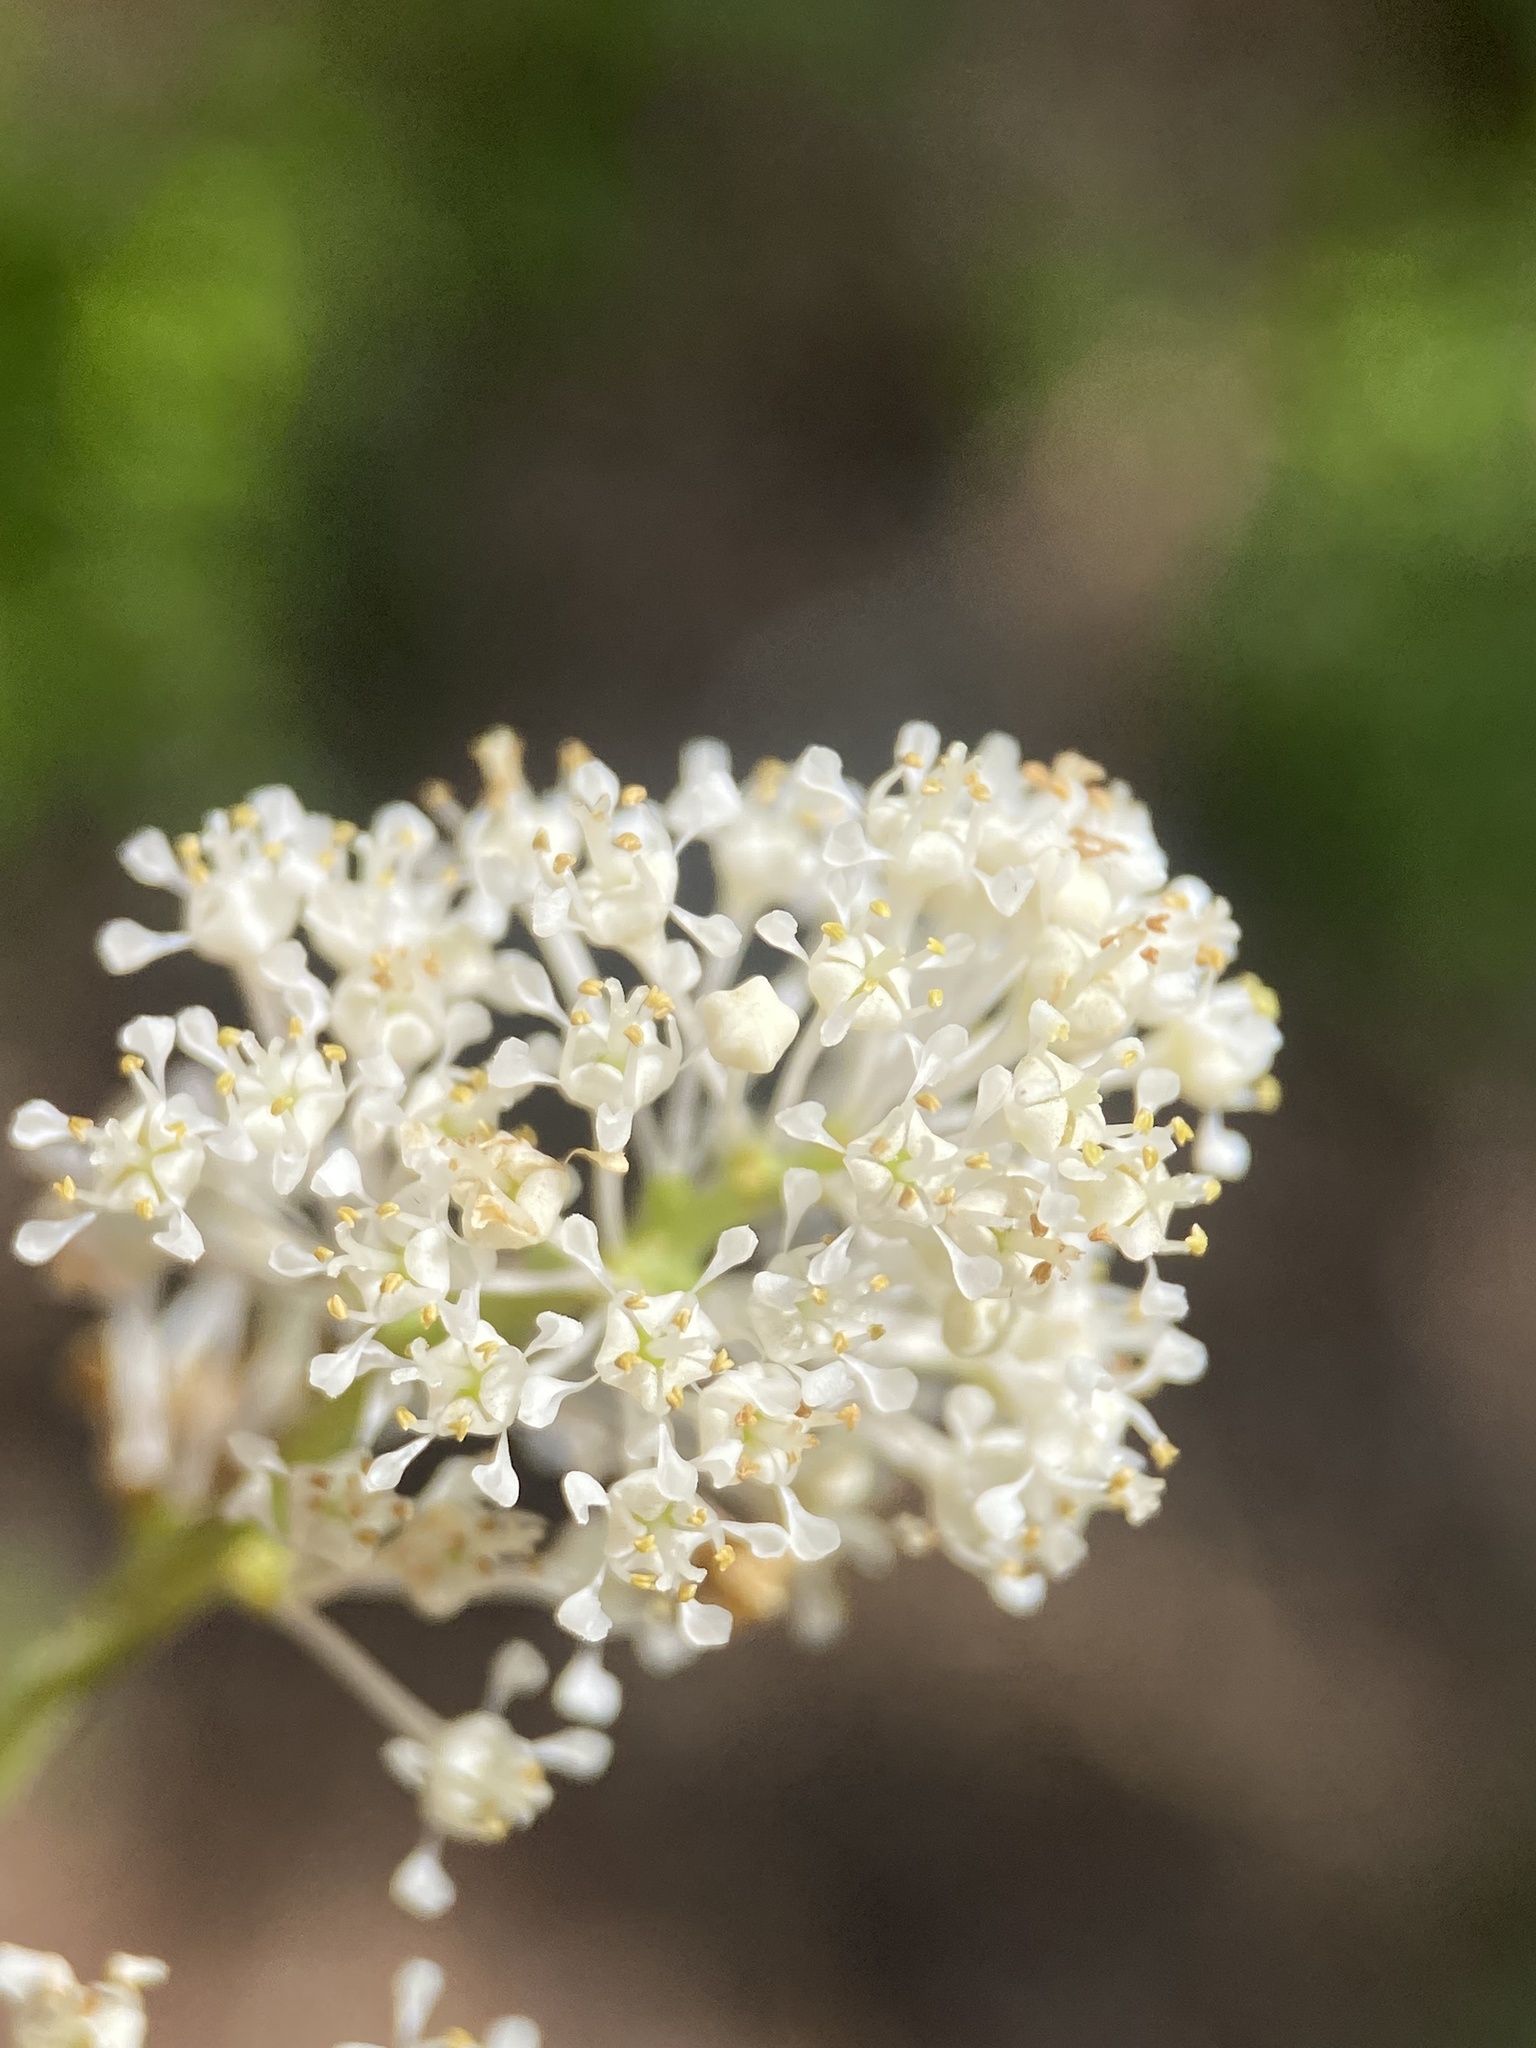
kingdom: Plantae
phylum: Tracheophyta
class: Magnoliopsida
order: Rosales
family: Rhamnaceae
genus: Ceanothus
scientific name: Ceanothus americanus
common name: Redroot
